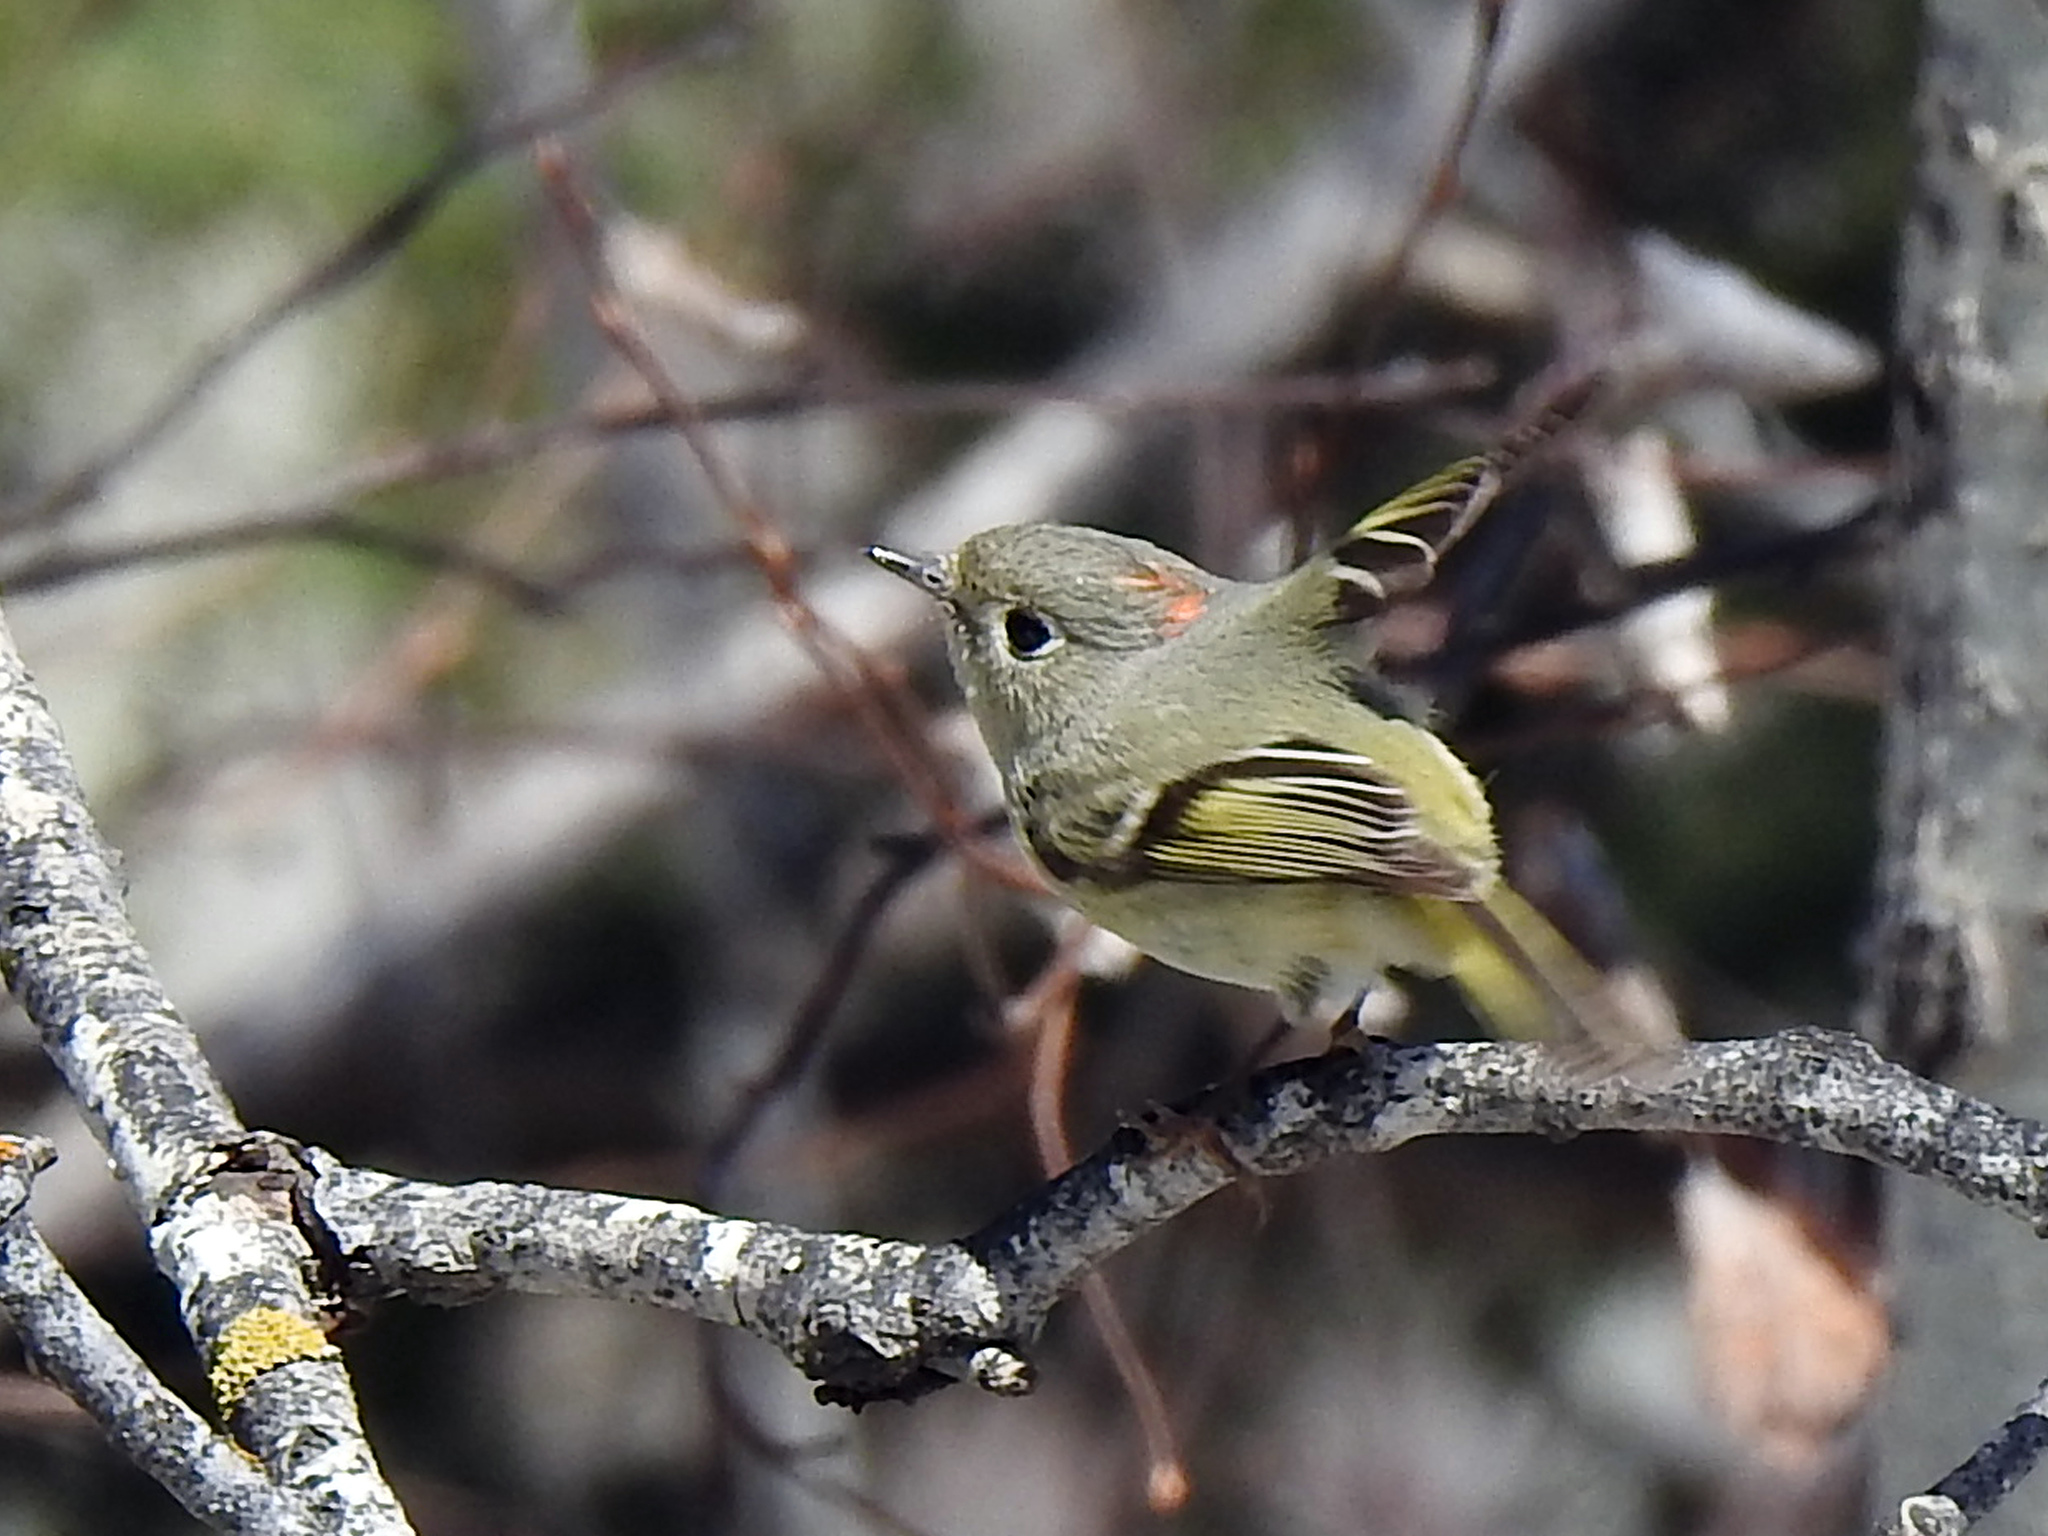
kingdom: Animalia
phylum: Chordata
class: Aves
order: Passeriformes
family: Regulidae
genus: Regulus
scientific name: Regulus calendula
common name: Ruby-crowned kinglet
